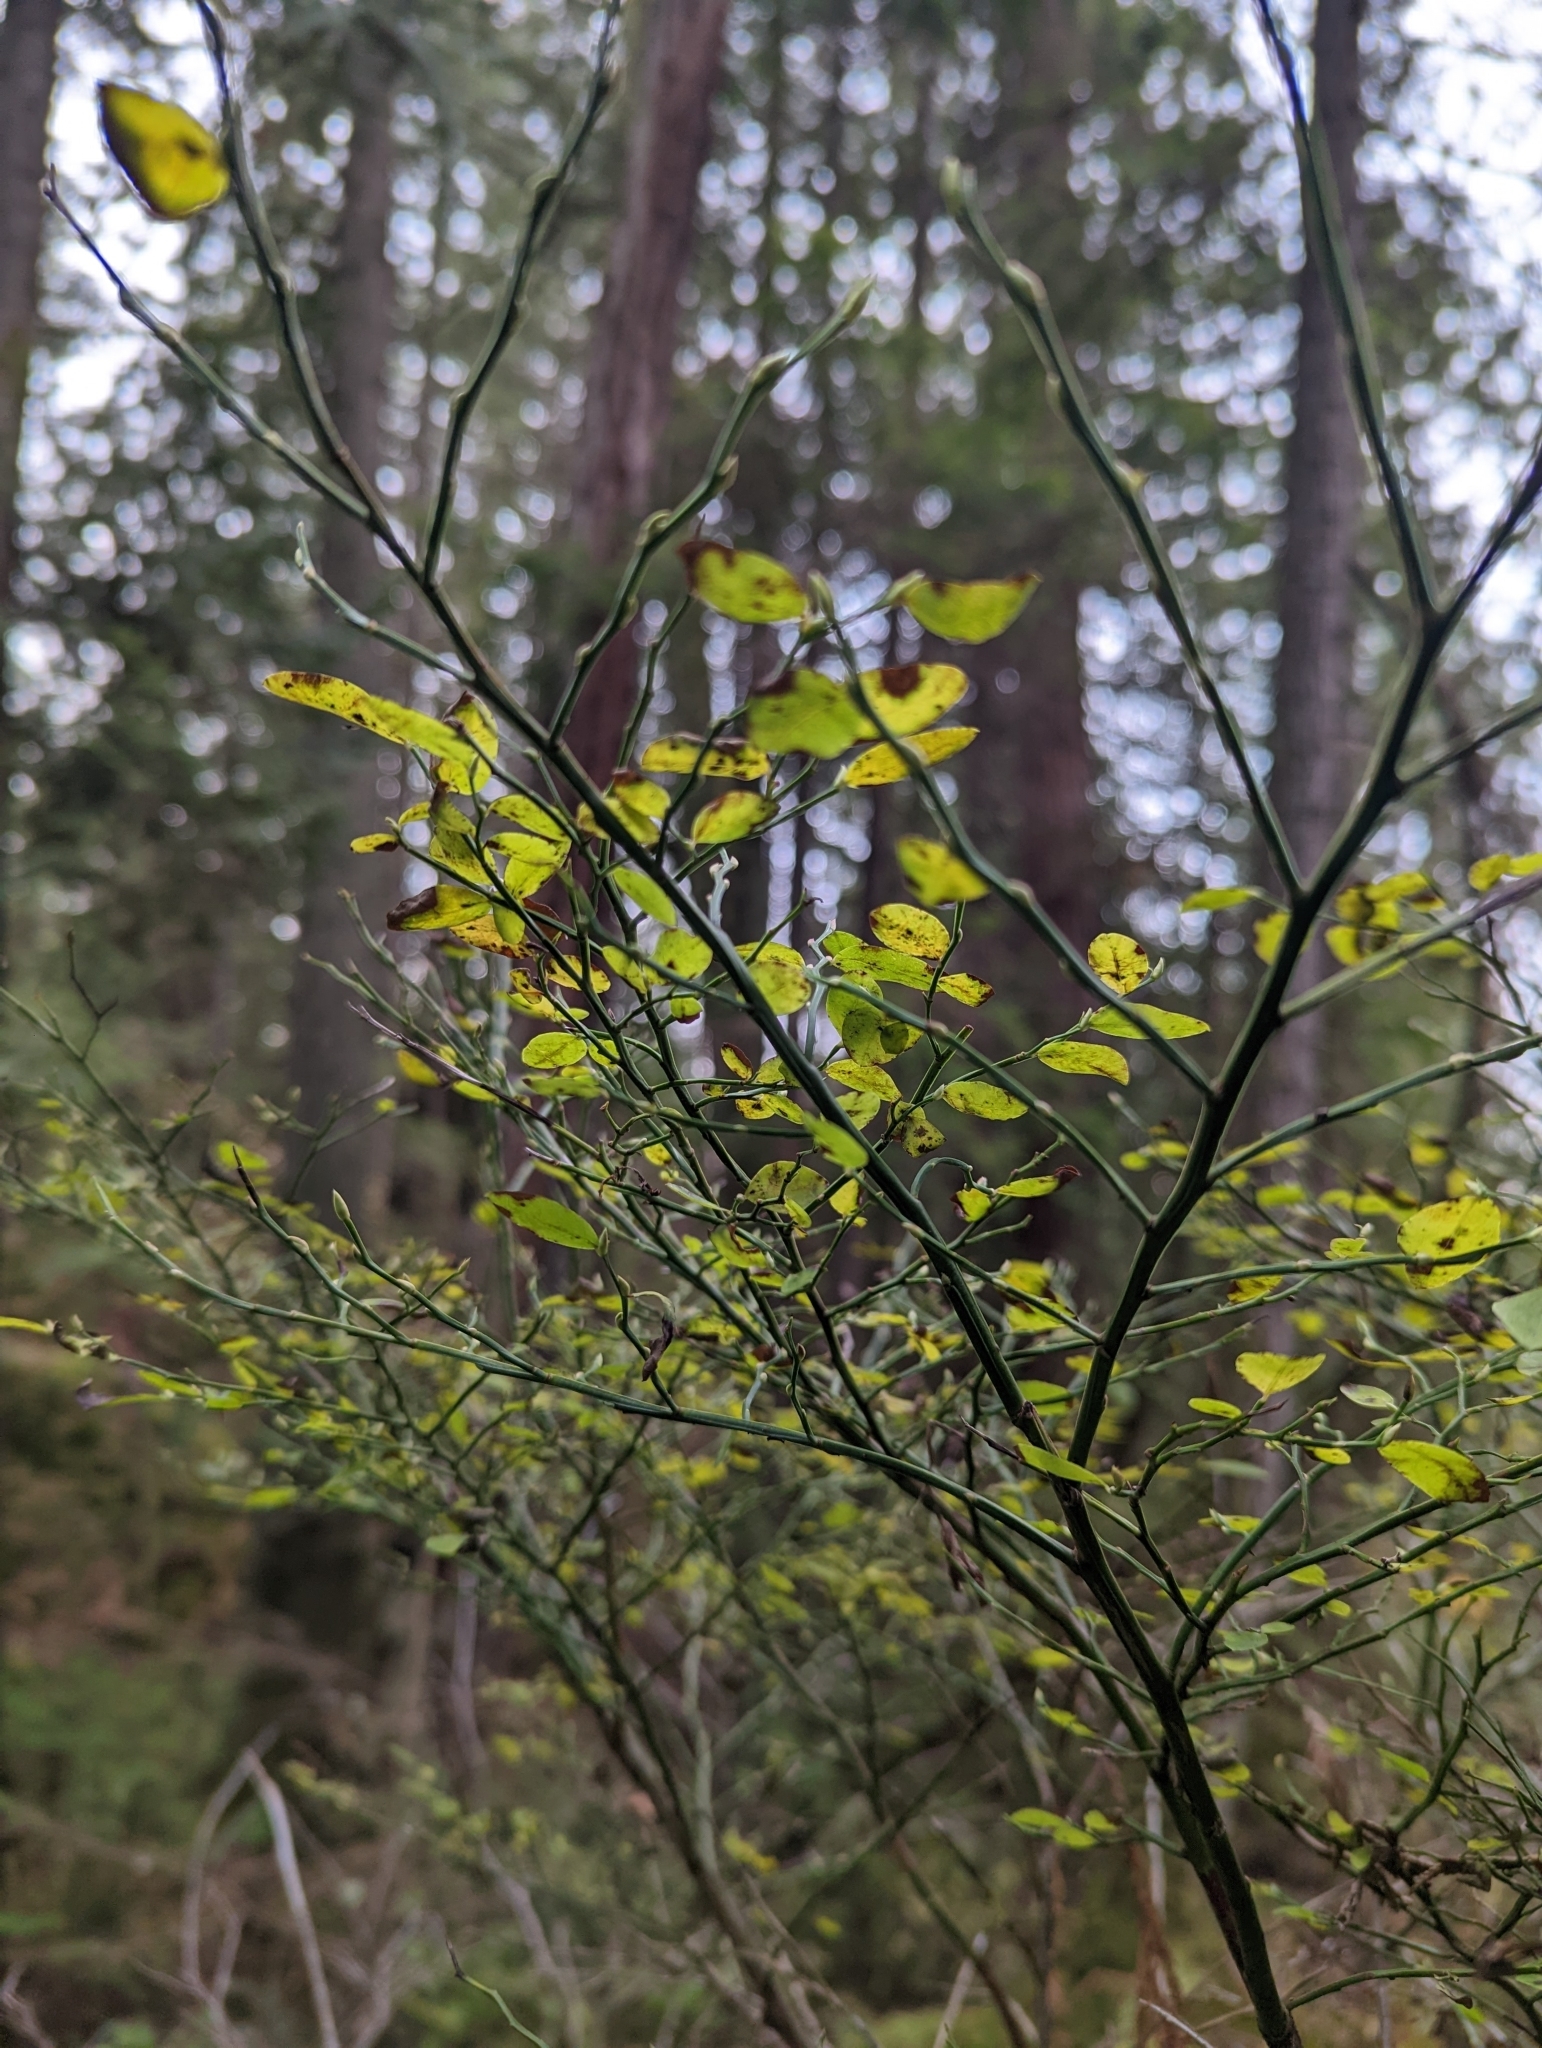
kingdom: Plantae
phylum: Tracheophyta
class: Magnoliopsida
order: Ericales
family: Ericaceae
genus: Vaccinium
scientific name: Vaccinium parvifolium
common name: Red-huckleberry
